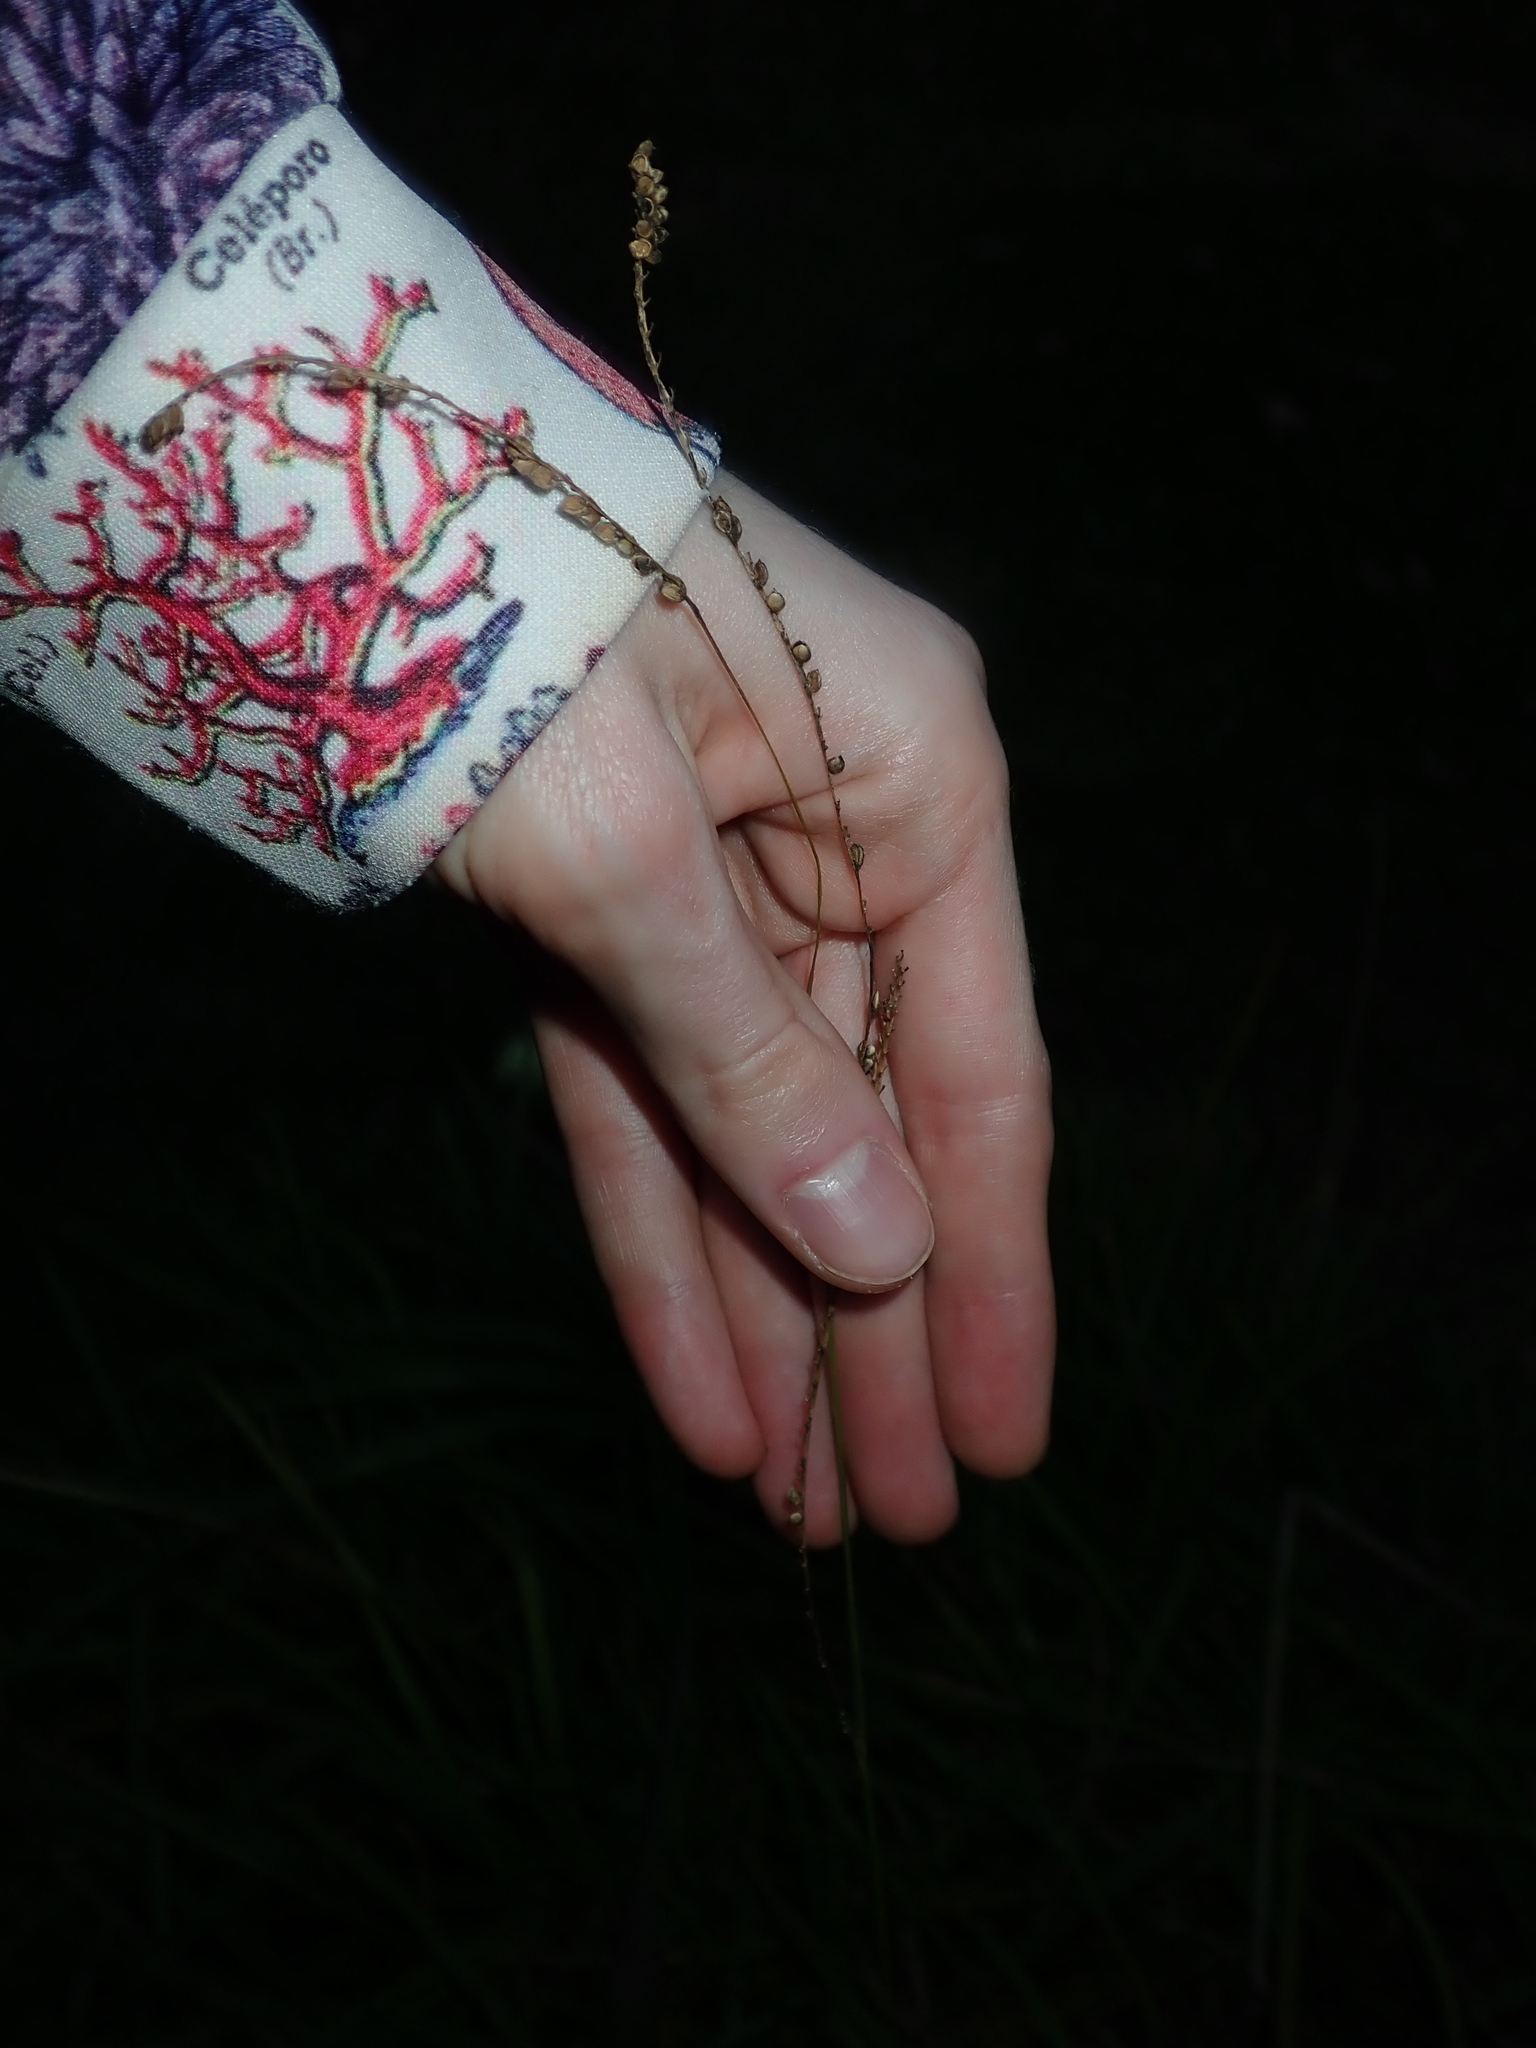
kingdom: Plantae
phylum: Tracheophyta
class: Liliopsida
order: Poales
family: Poaceae
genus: Paspalum
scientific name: Paspalum
